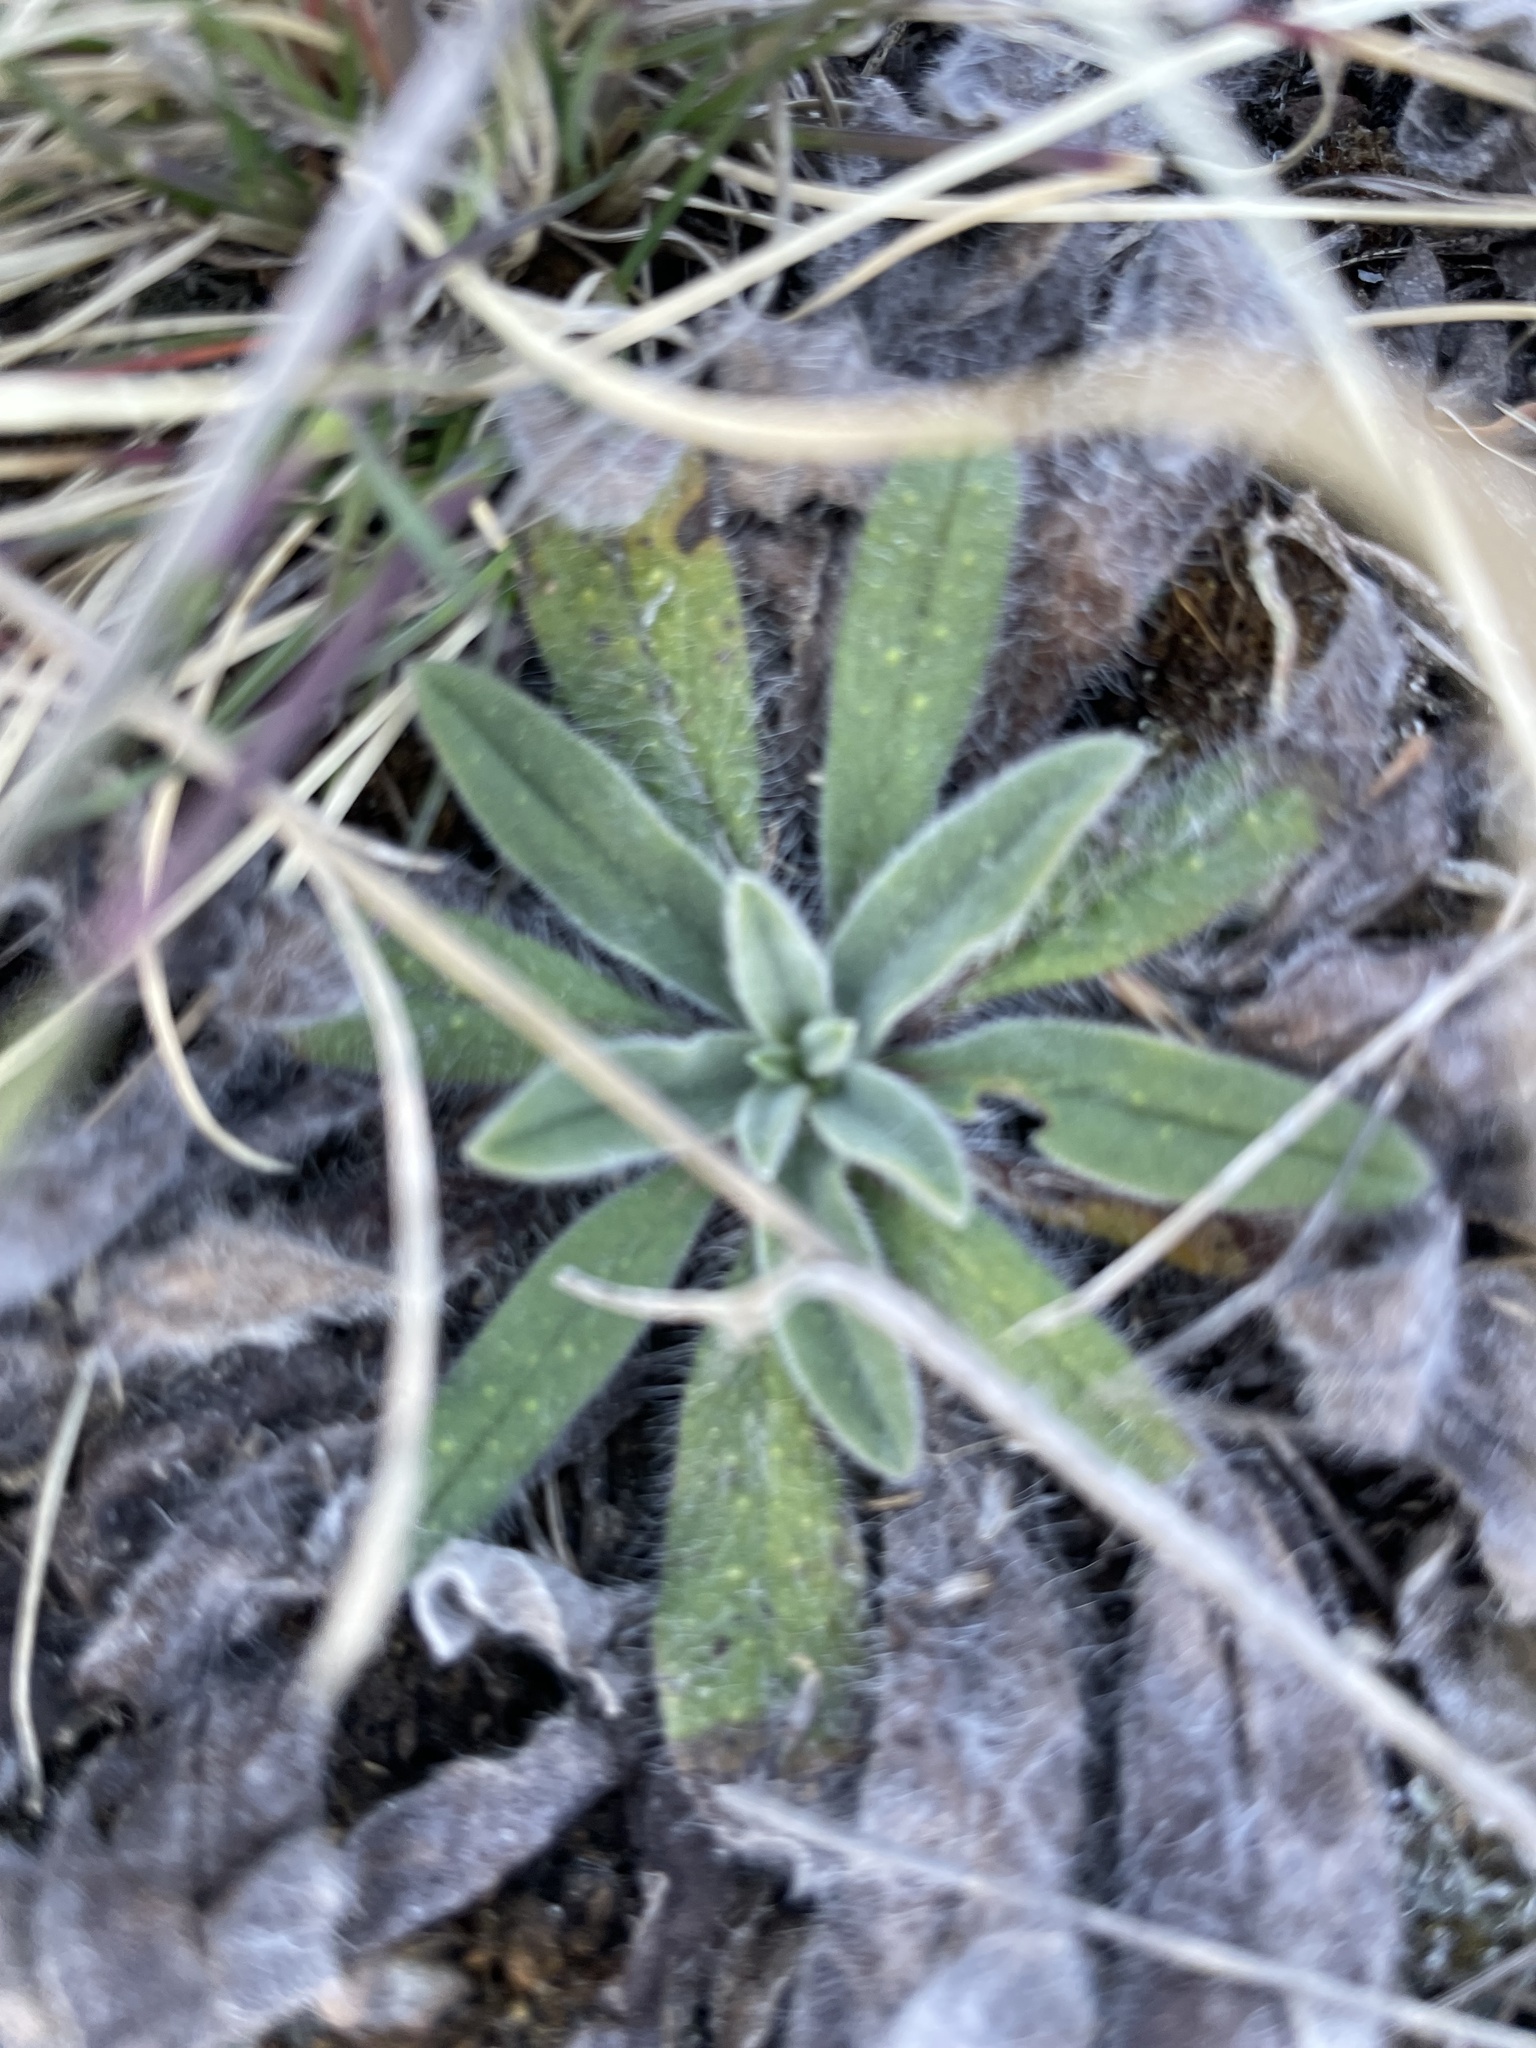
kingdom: Plantae
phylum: Tracheophyta
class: Magnoliopsida
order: Boraginales
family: Boraginaceae
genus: Echium
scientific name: Echium vulgare
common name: Common viper's bugloss
